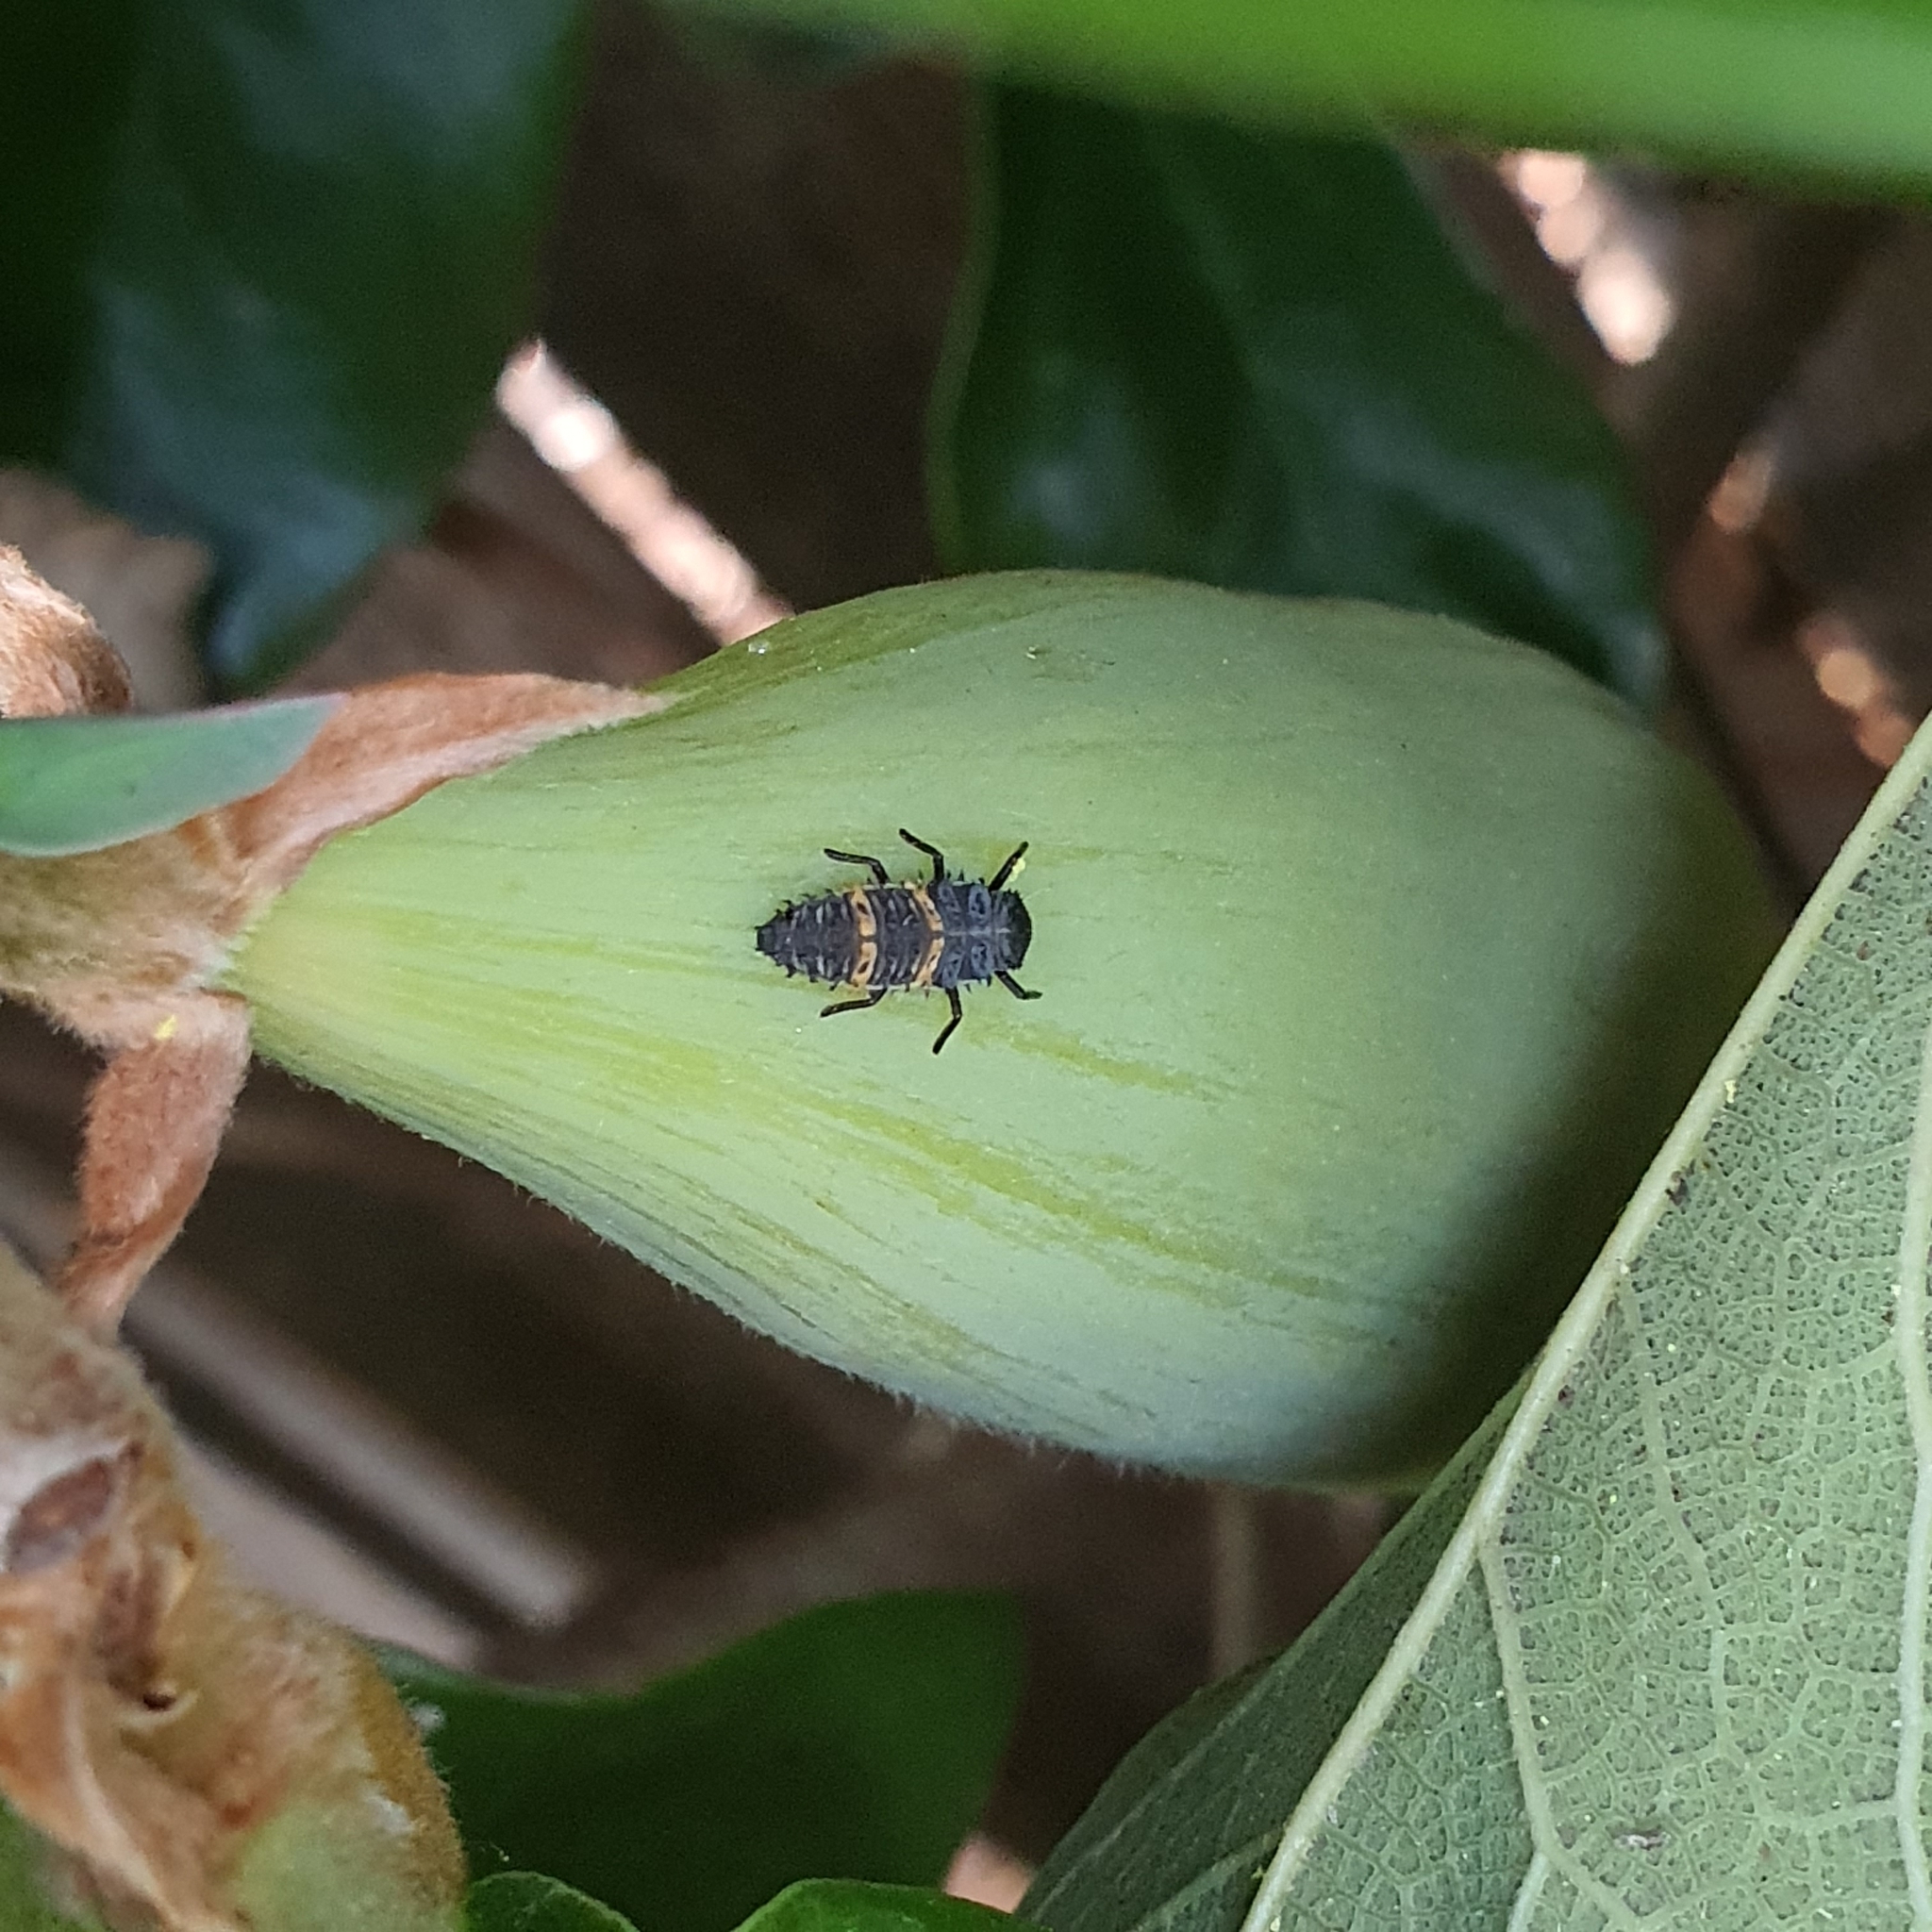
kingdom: Animalia
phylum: Arthropoda
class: Insecta
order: Coleoptera
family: Coccinellidae
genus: Harmonia
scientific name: Harmonia conformis
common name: Common spotted ladybird beetle
